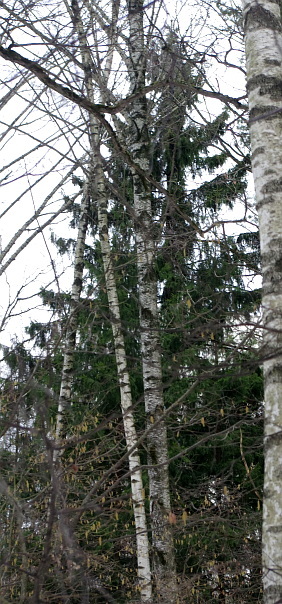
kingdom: Plantae
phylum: Tracheophyta
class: Pinopsida
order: Pinales
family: Pinaceae
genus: Picea
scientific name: Picea abies
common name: Norway spruce
